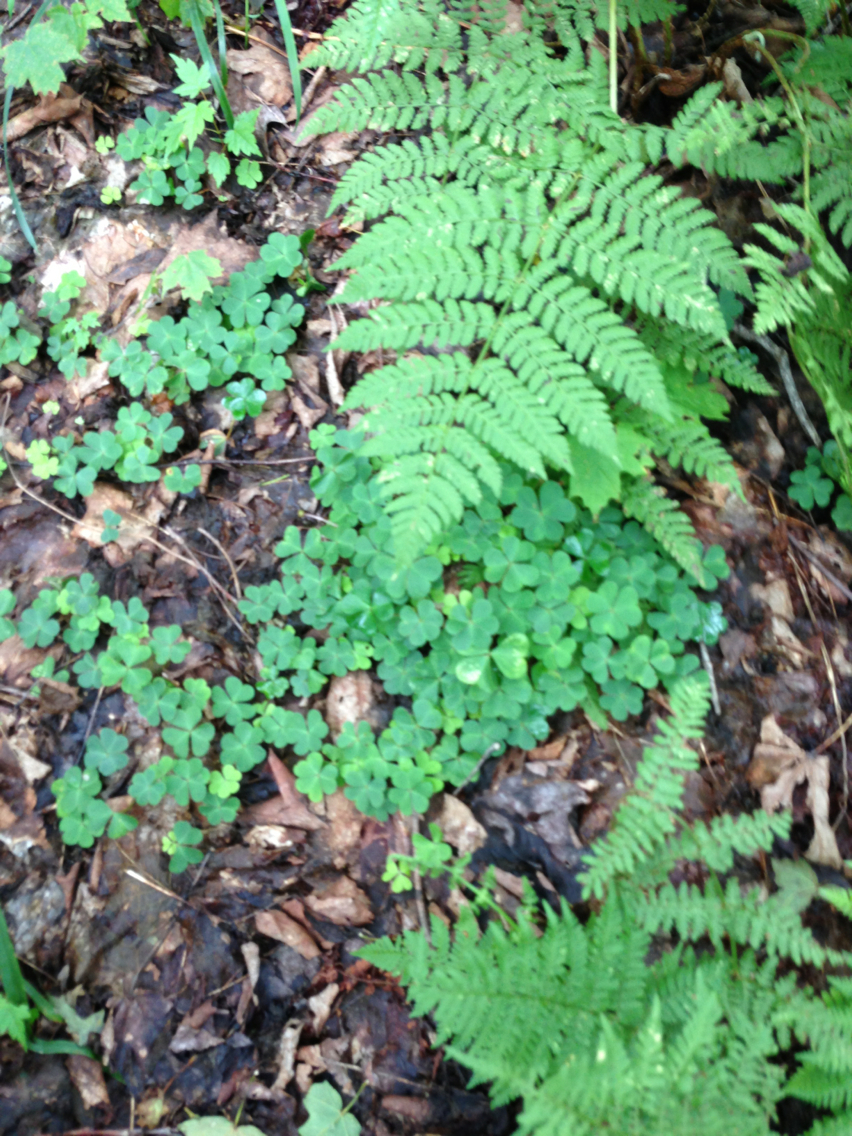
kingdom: Plantae
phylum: Tracheophyta
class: Magnoliopsida
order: Oxalidales
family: Oxalidaceae
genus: Oxalis
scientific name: Oxalis montana
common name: American wood-sorrel
